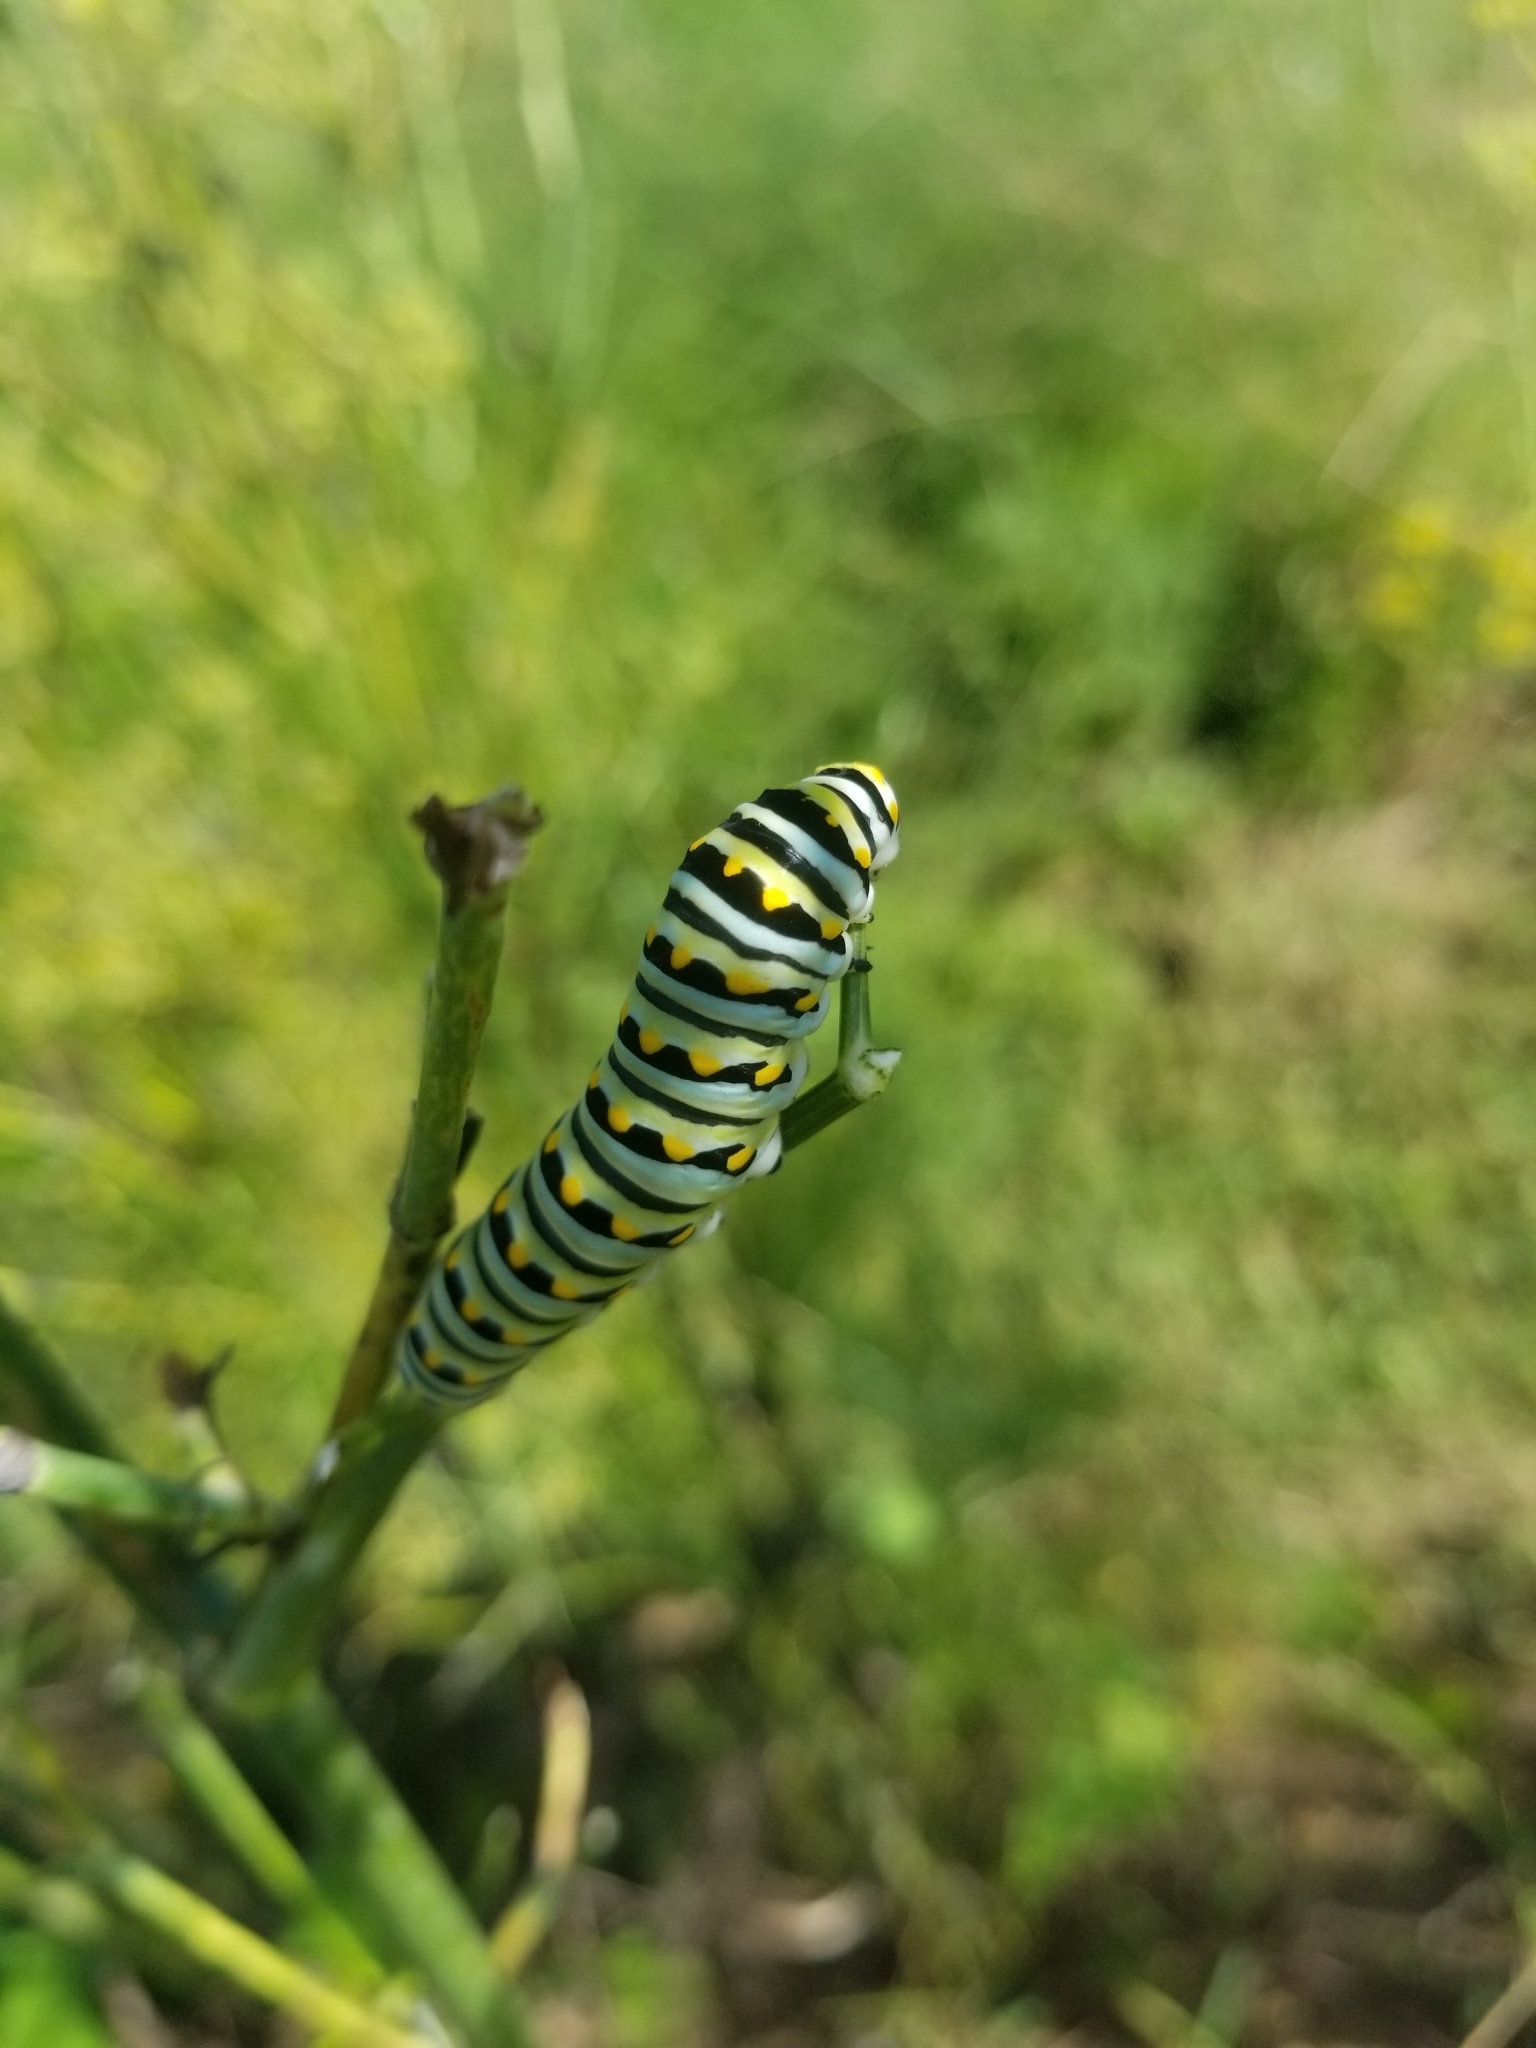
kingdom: Animalia
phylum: Arthropoda
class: Insecta
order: Lepidoptera
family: Papilionidae
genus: Papilio
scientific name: Papilio polyxenes
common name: Black swallowtail
